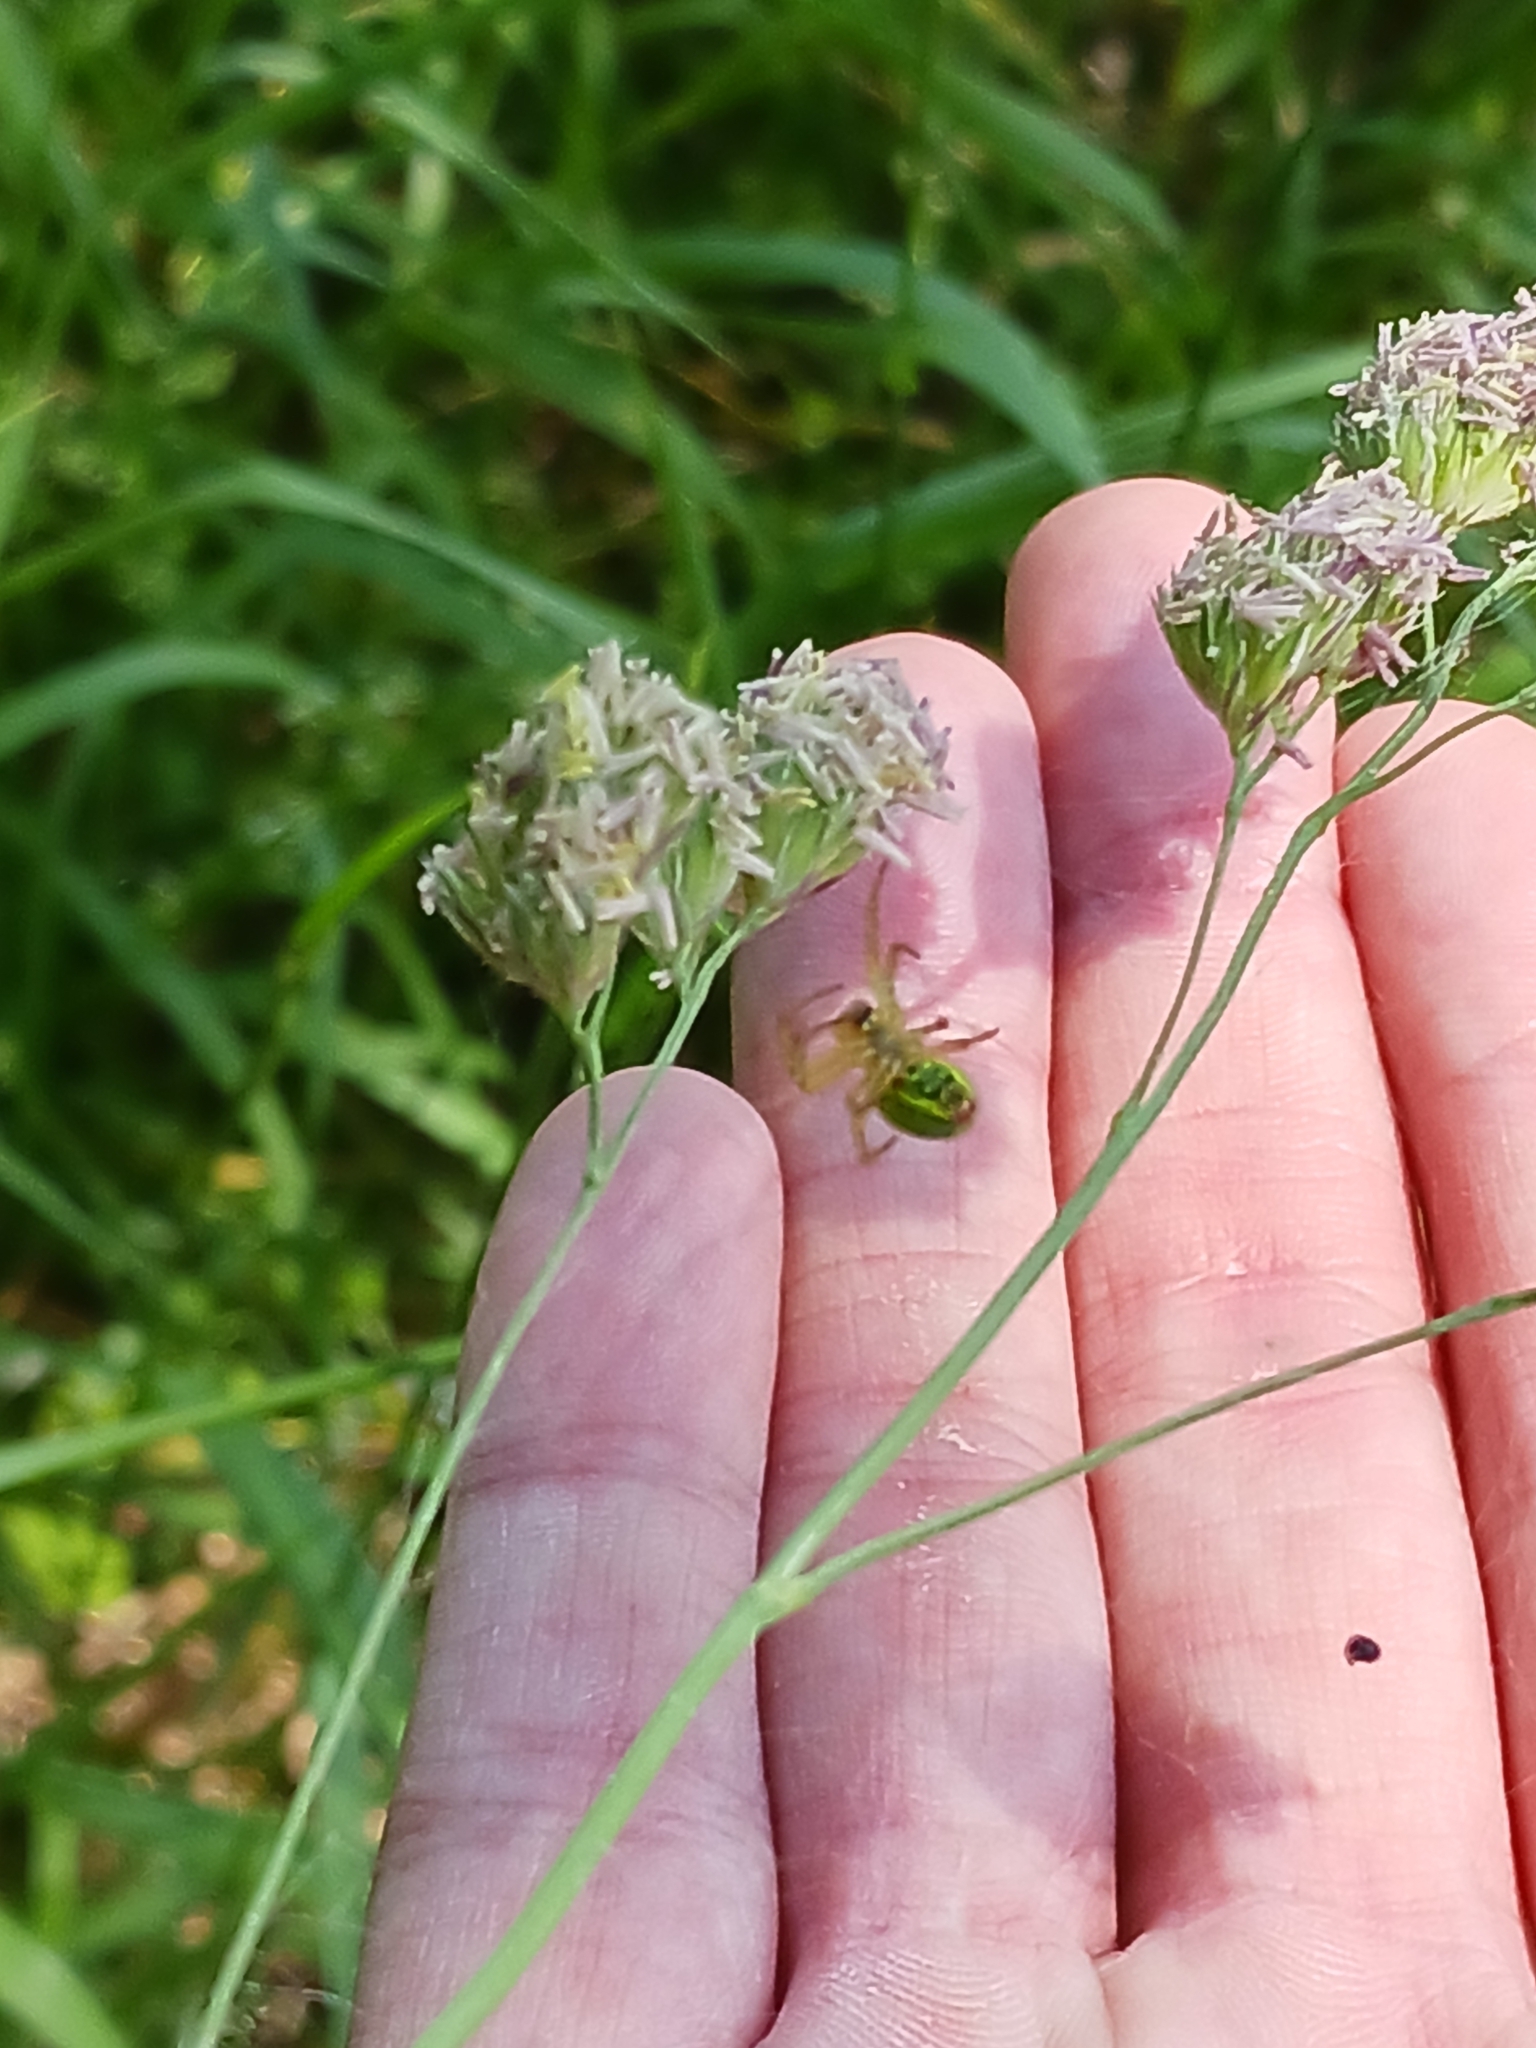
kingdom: Animalia
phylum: Arthropoda
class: Arachnida
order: Araneae
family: Araneidae
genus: Araniella
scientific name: Araniella
